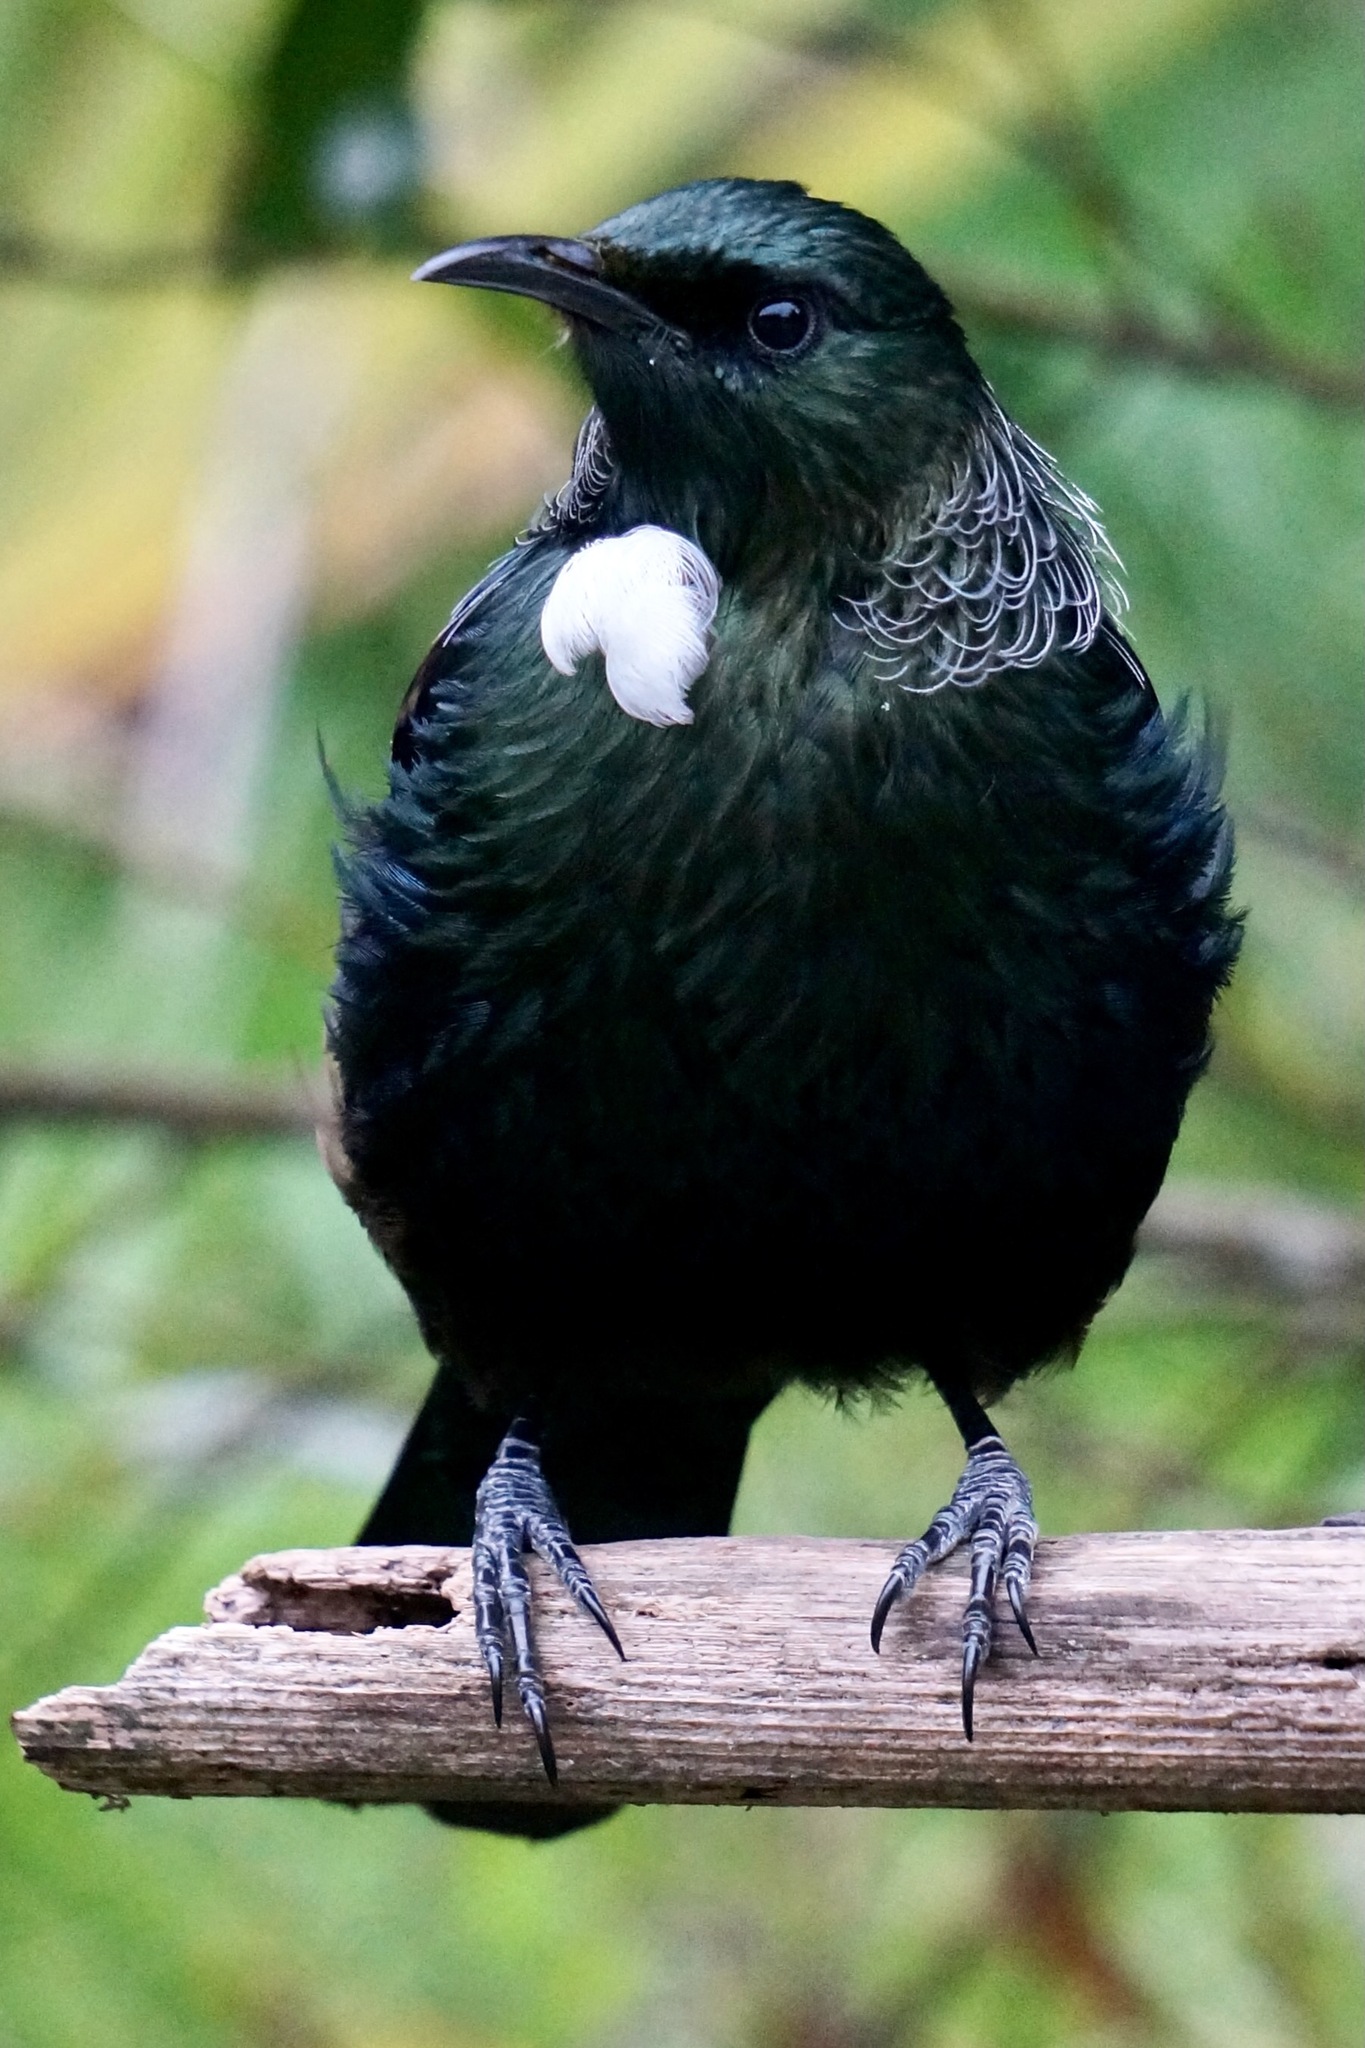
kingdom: Animalia
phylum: Chordata
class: Aves
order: Passeriformes
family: Meliphagidae
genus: Prosthemadera
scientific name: Prosthemadera novaeseelandiae
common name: Tui
